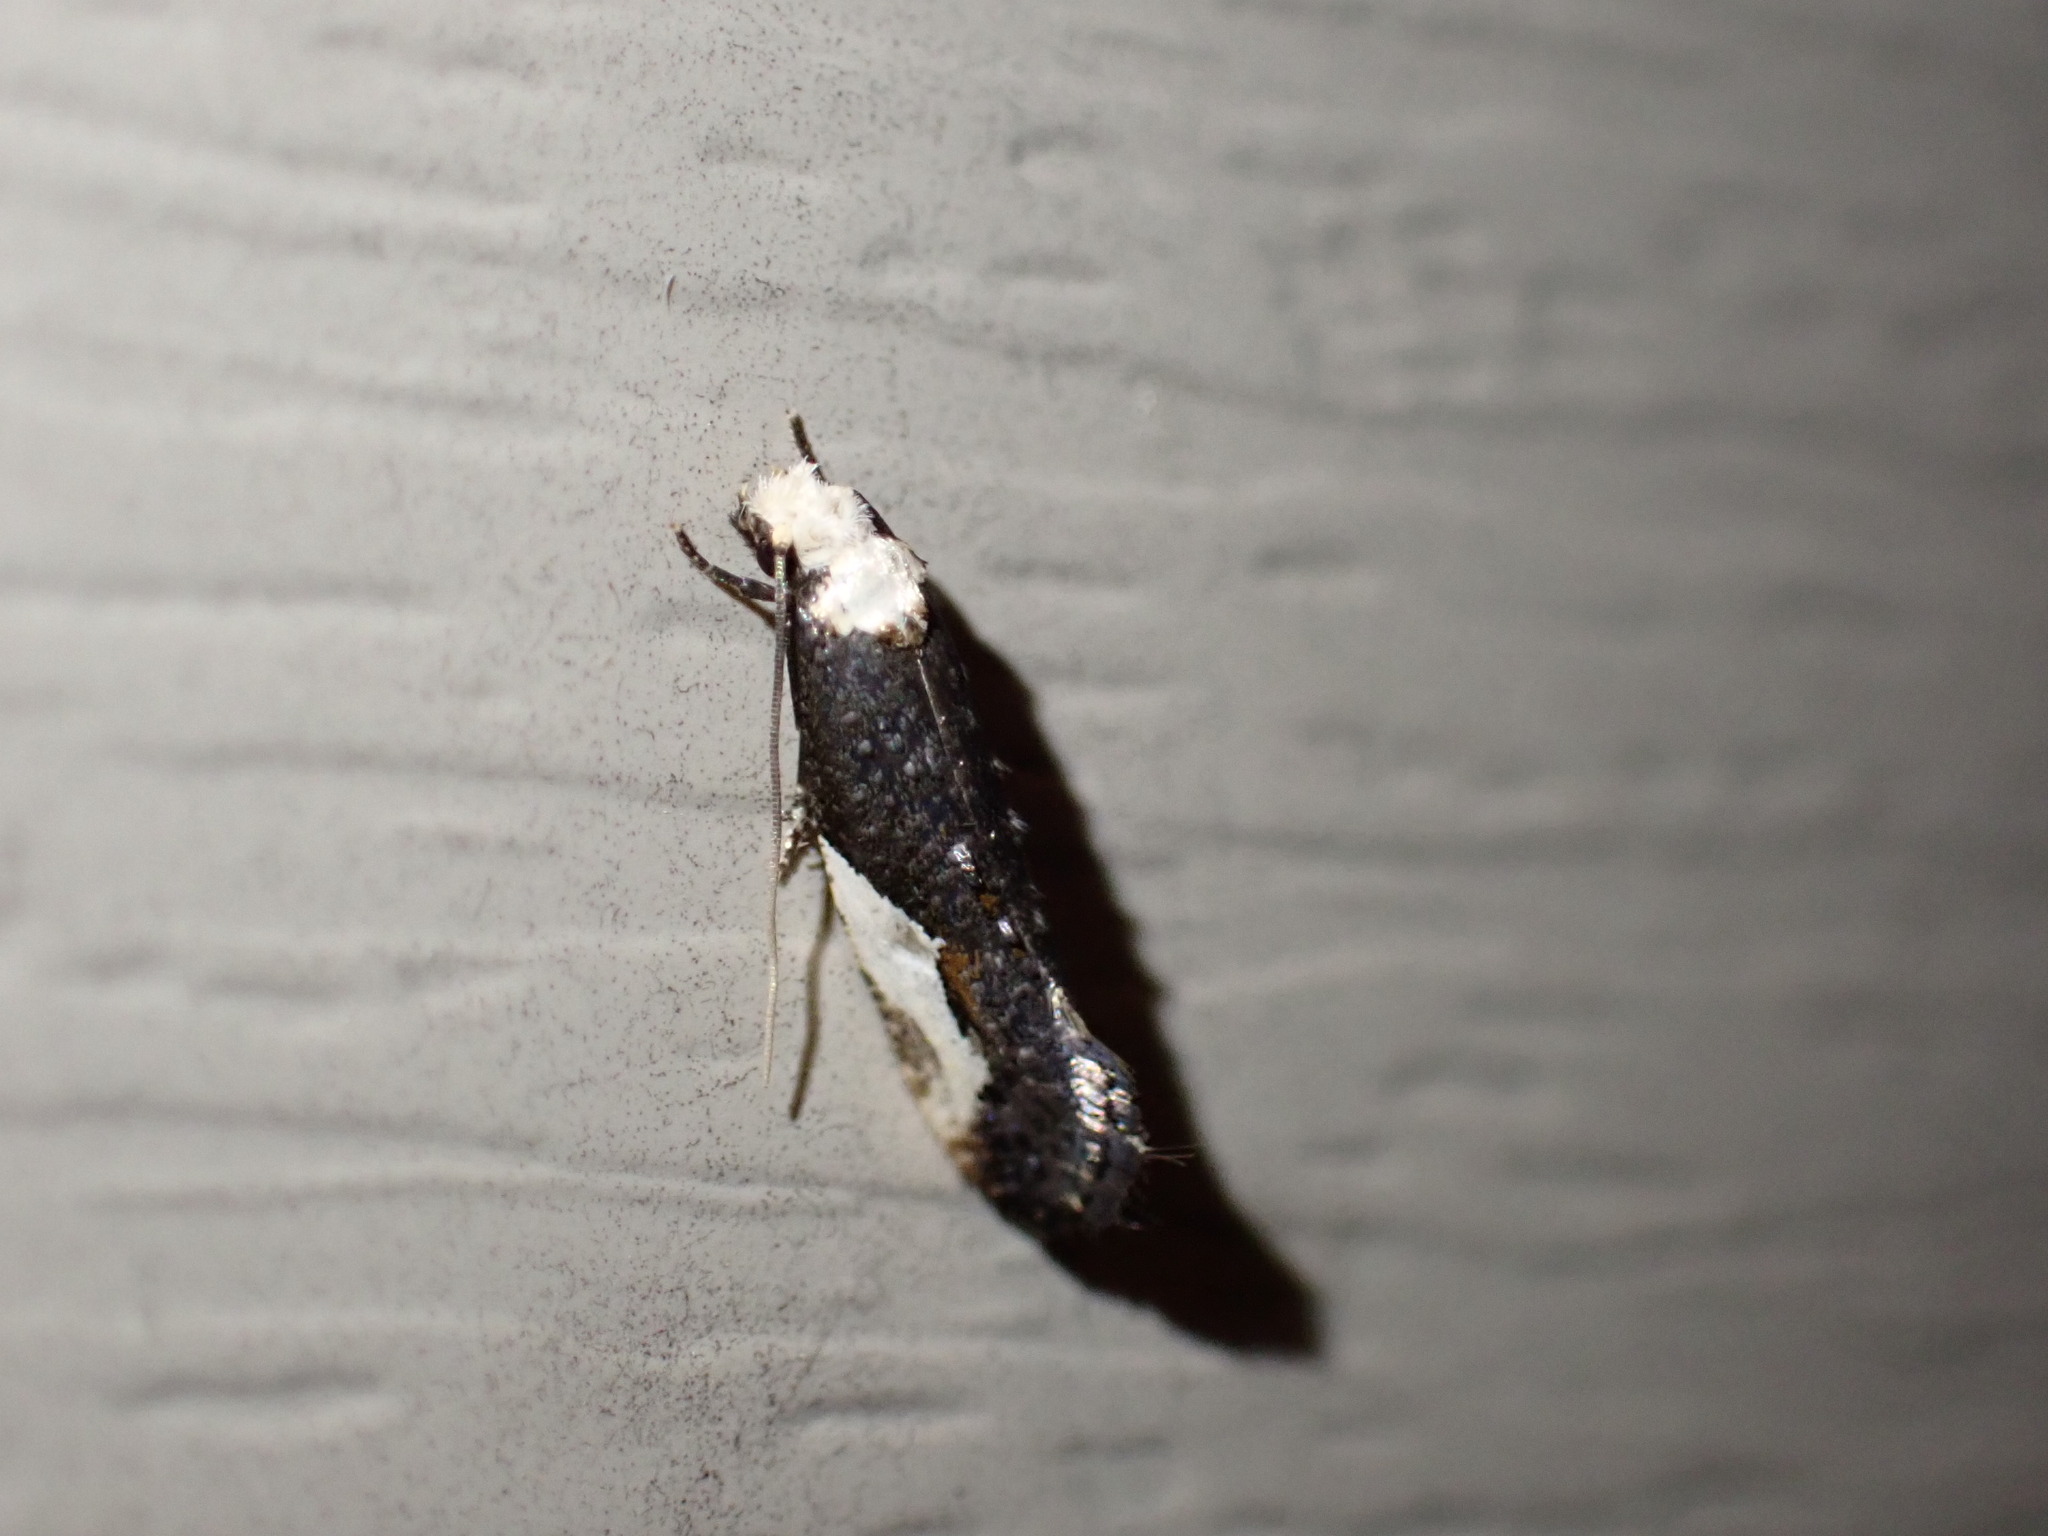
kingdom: Animalia
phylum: Arthropoda
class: Insecta
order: Lepidoptera
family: Tineidae
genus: Monopis
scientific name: Monopis longella
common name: Pavlovski's monopis moth
